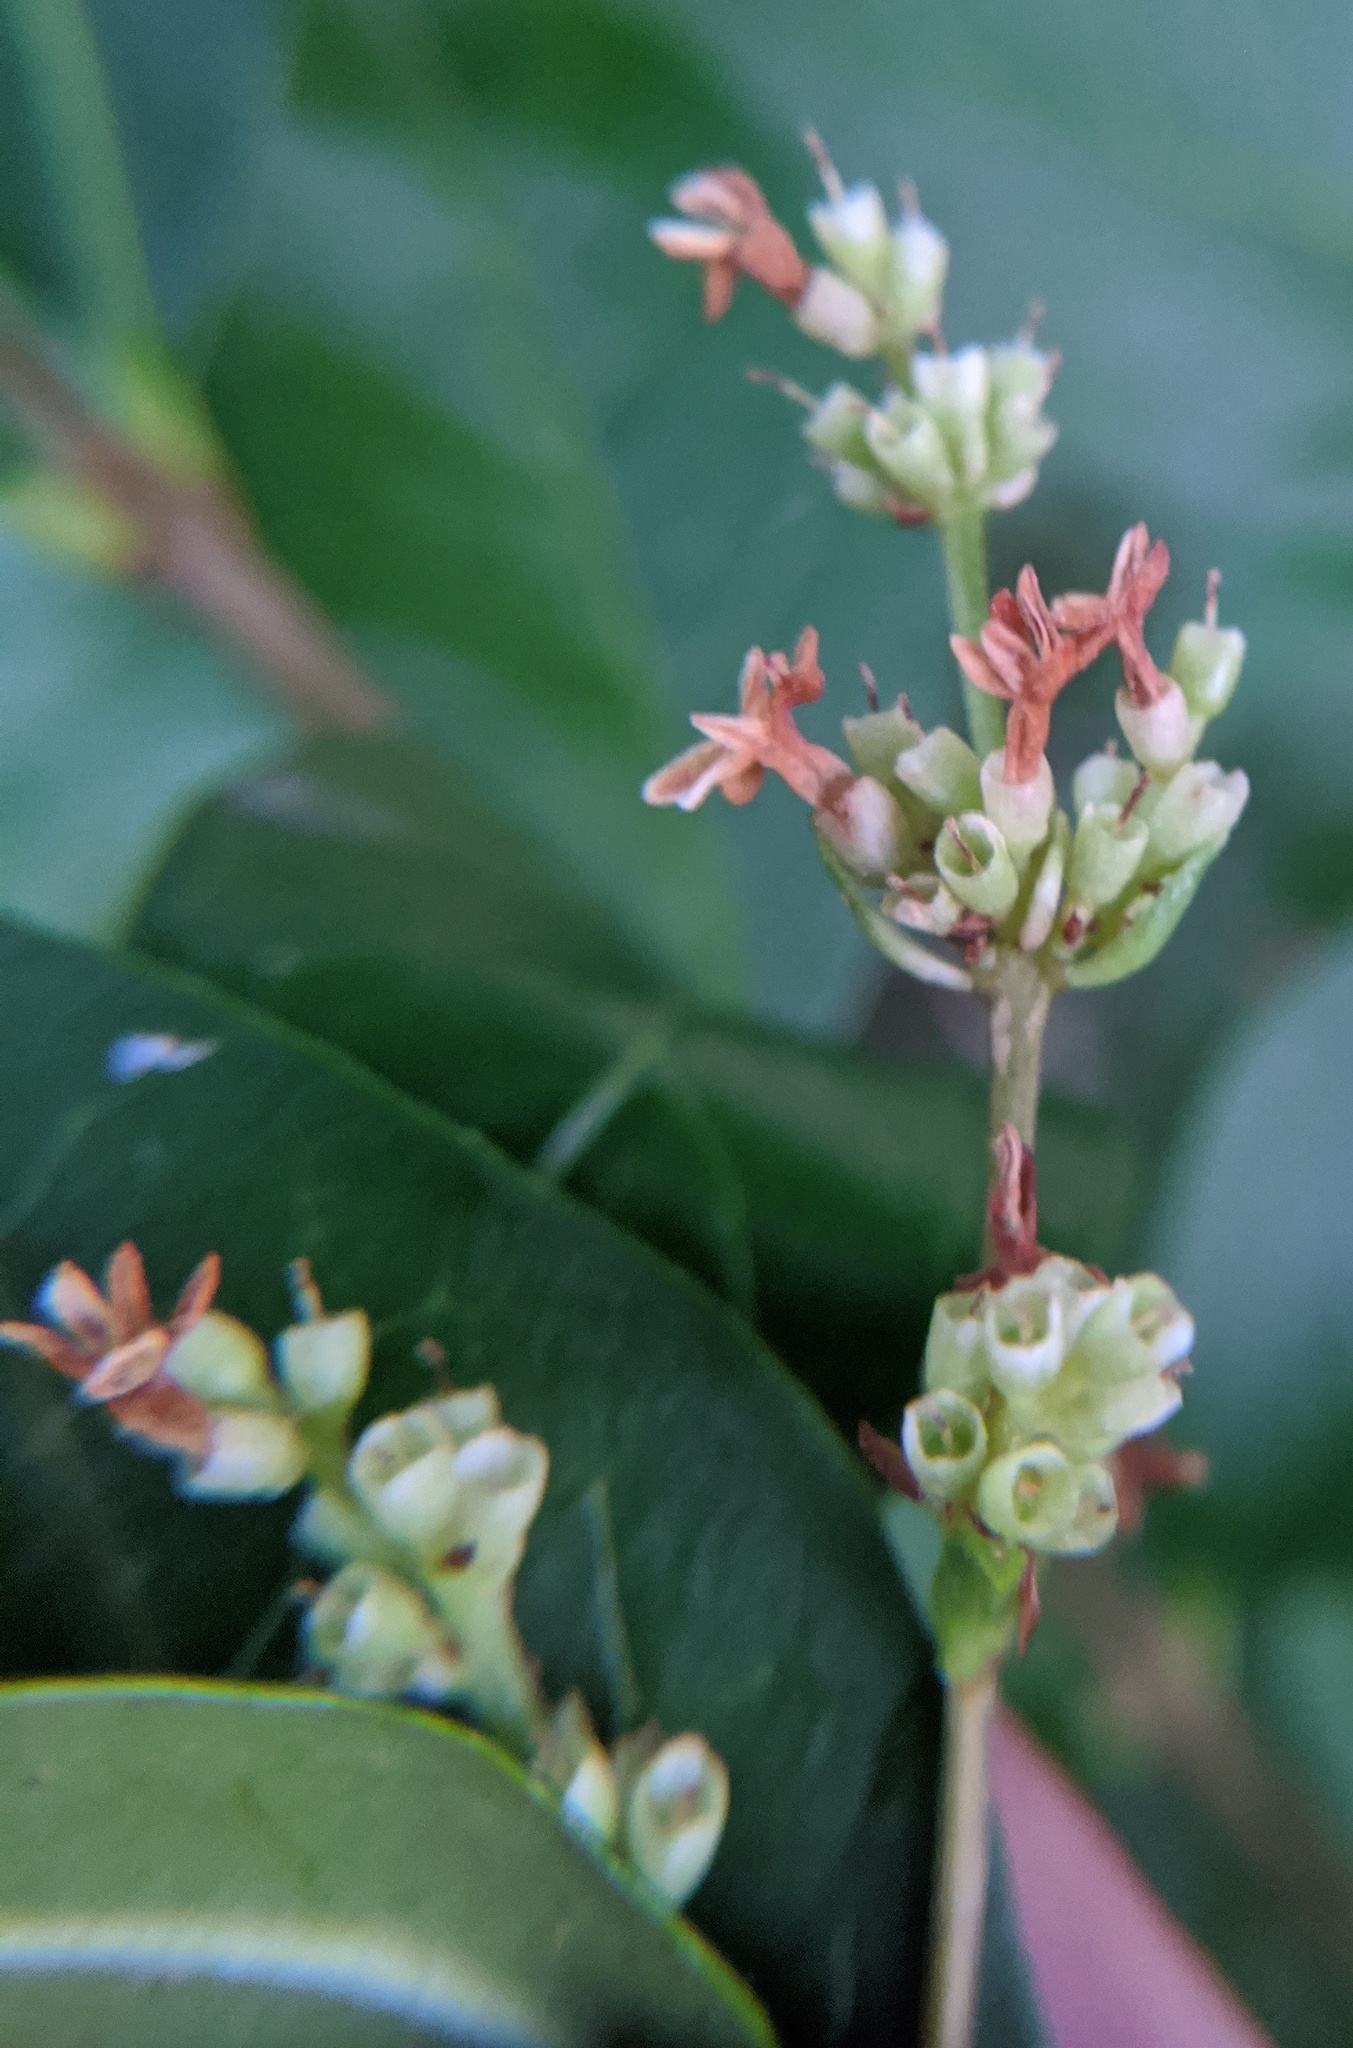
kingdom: Plantae
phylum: Tracheophyta
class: Magnoliopsida
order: Lamiales
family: Oleaceae
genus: Ligustrum
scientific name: Ligustrum
